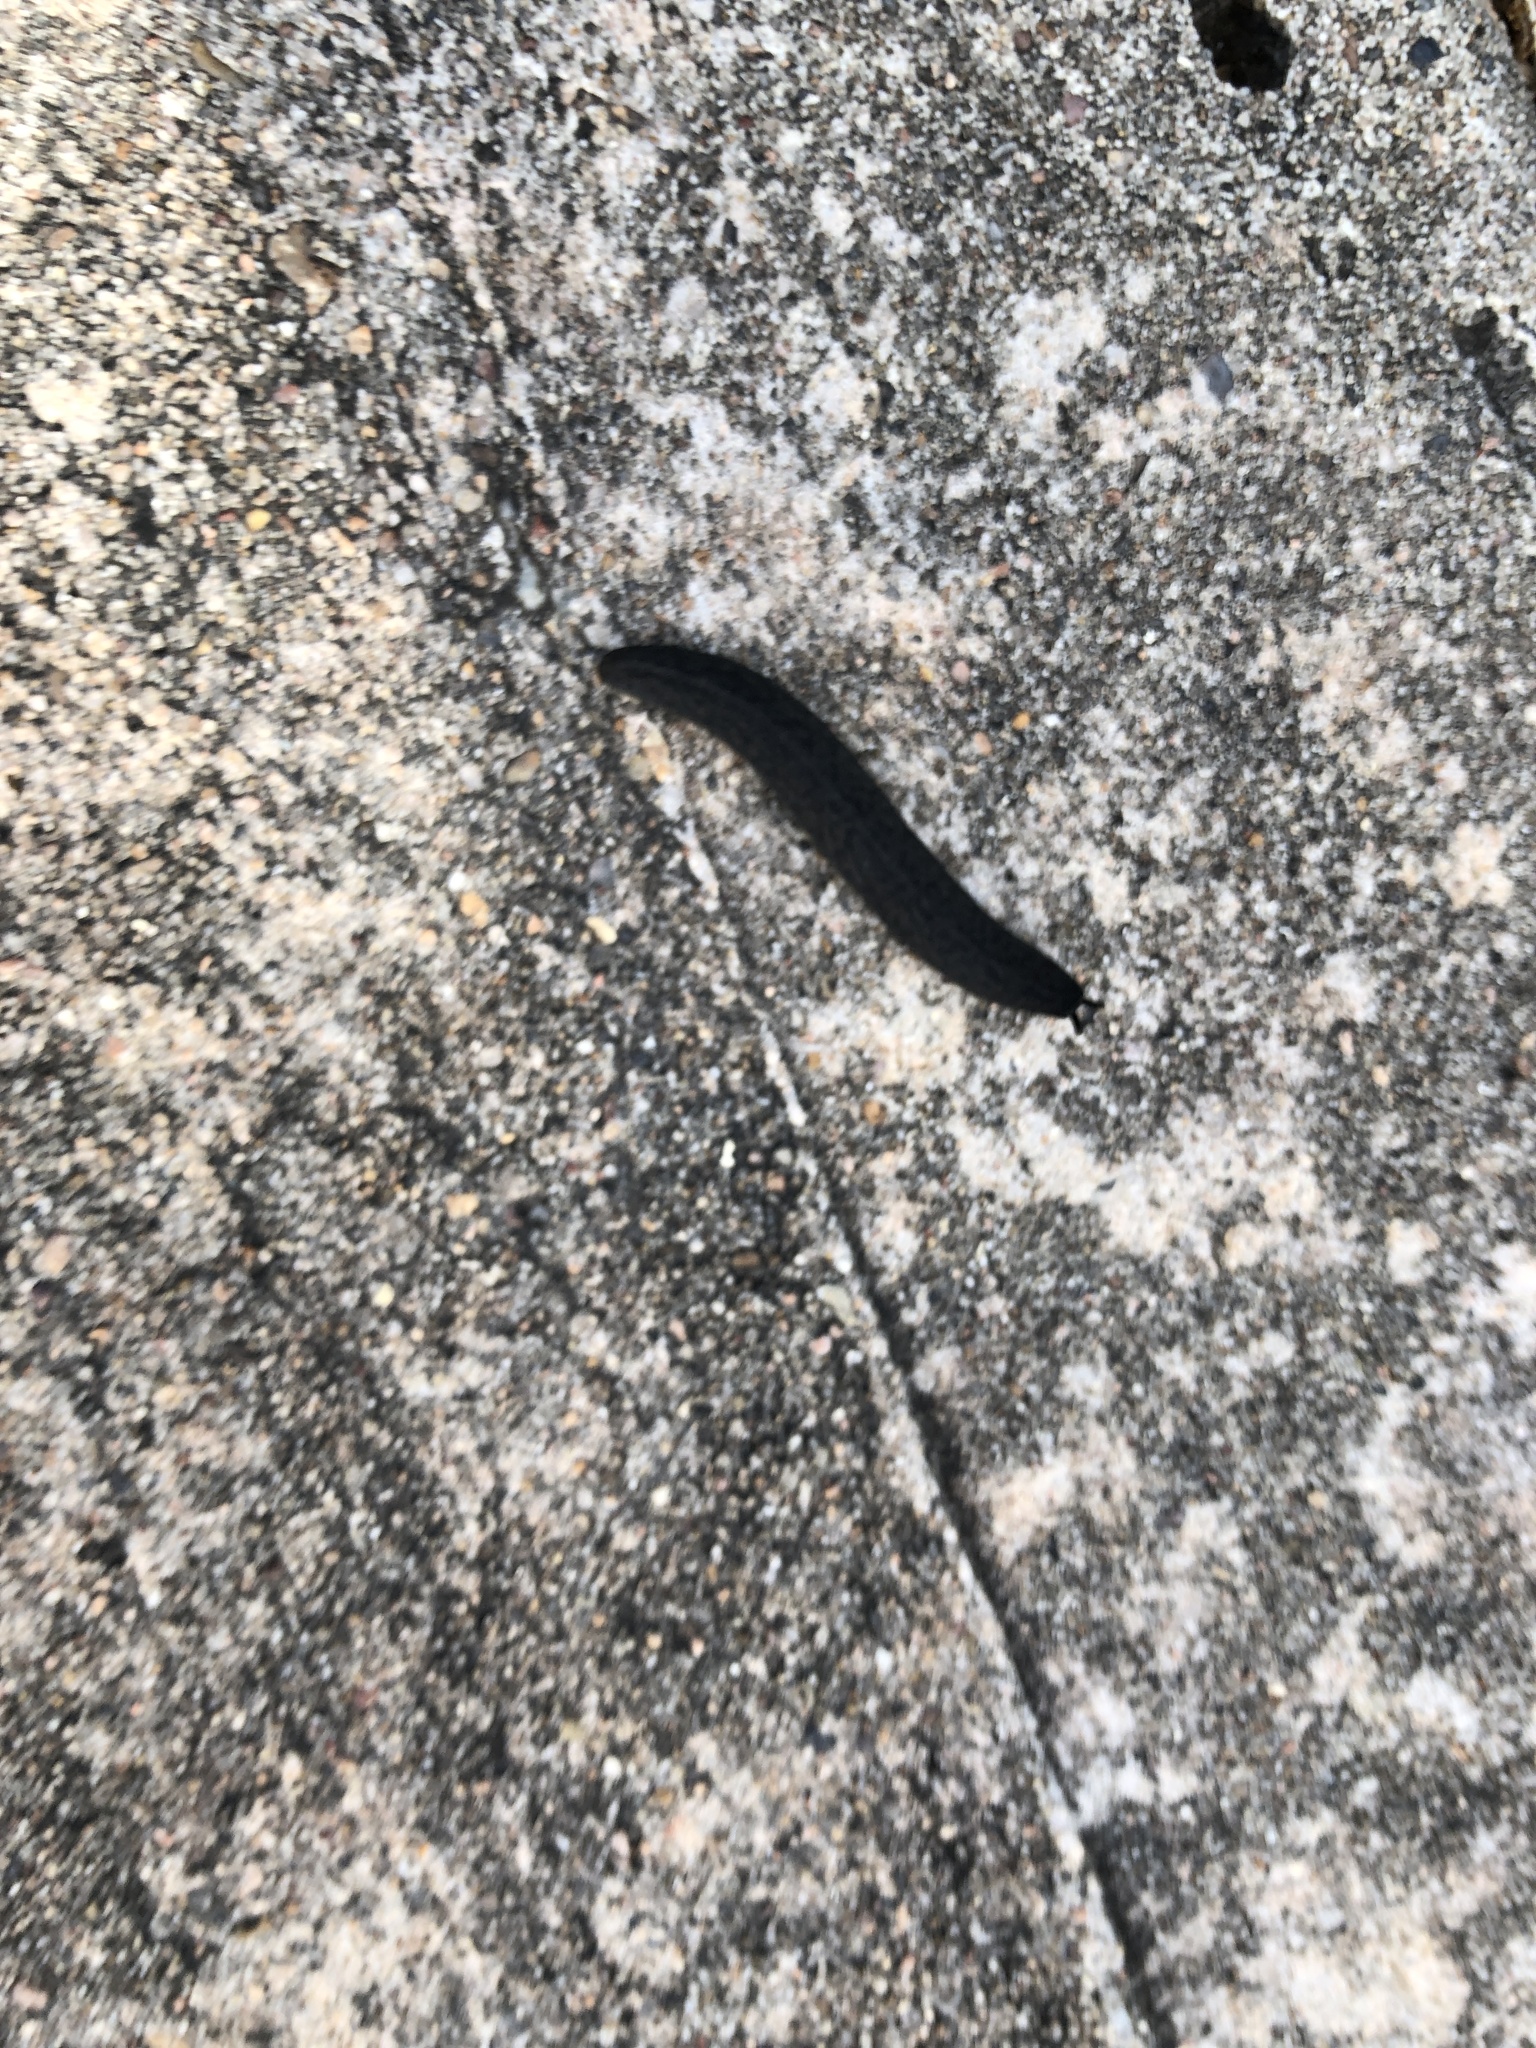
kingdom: Animalia
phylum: Mollusca
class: Gastropoda
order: Systellommatophora
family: Veronicellidae
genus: Belocaulus
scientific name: Belocaulus angustipes
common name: Black velvet leatherleaf slug
